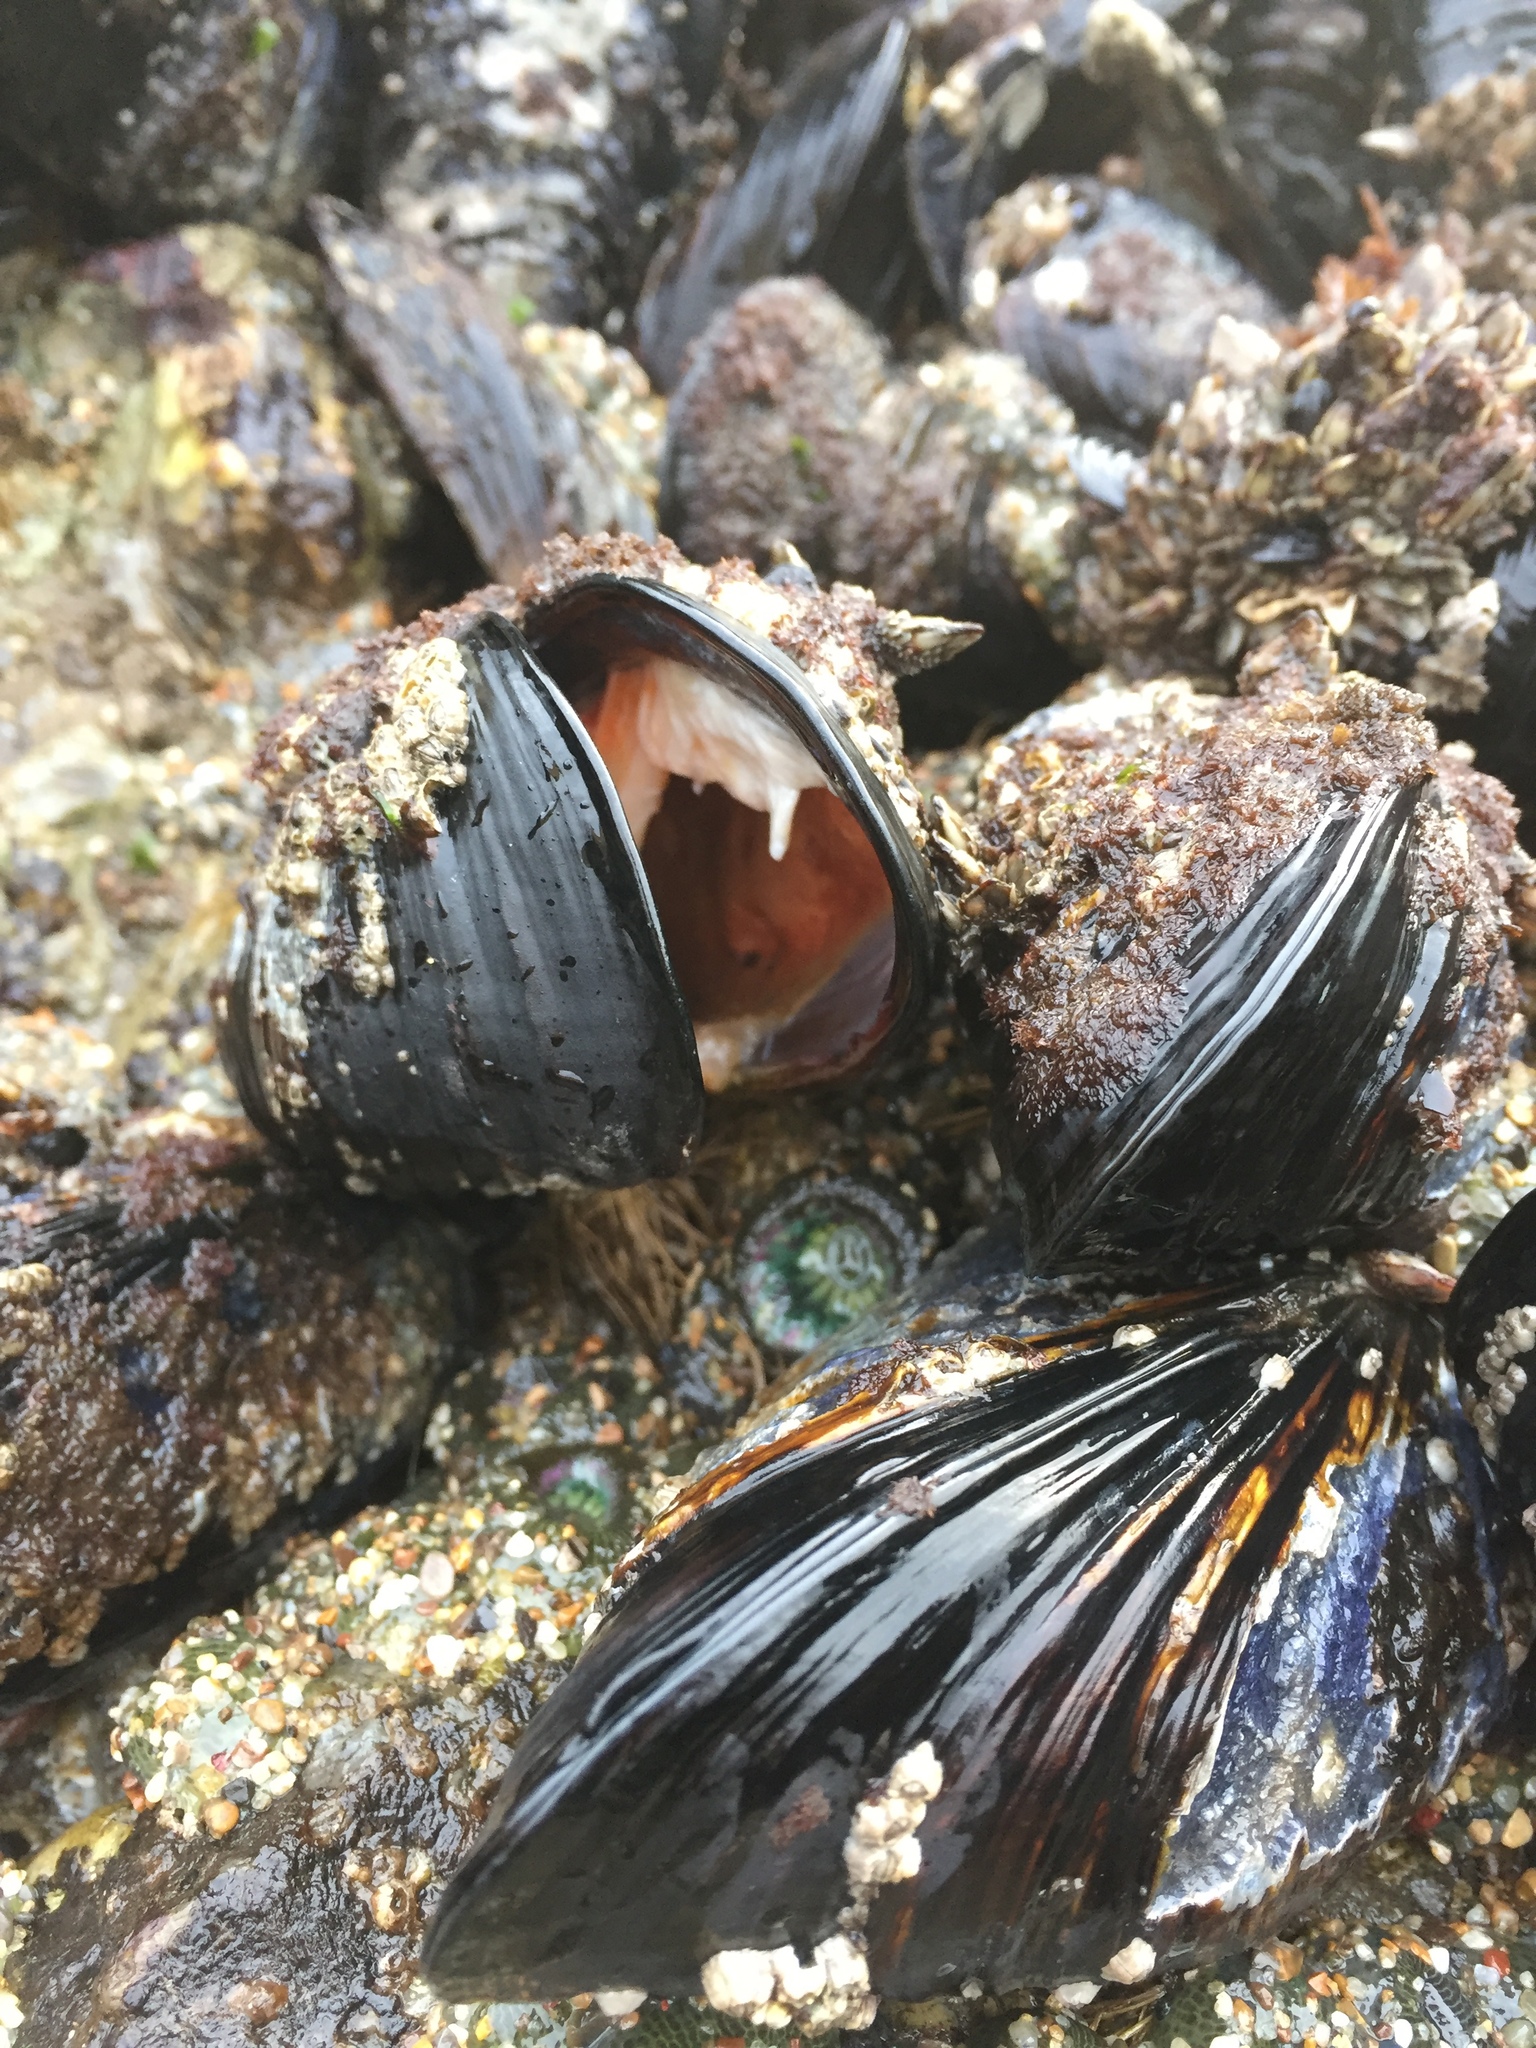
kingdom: Animalia
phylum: Mollusca
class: Bivalvia
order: Mytilida
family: Mytilidae
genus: Mytilus
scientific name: Mytilus californianus
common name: California mussel
